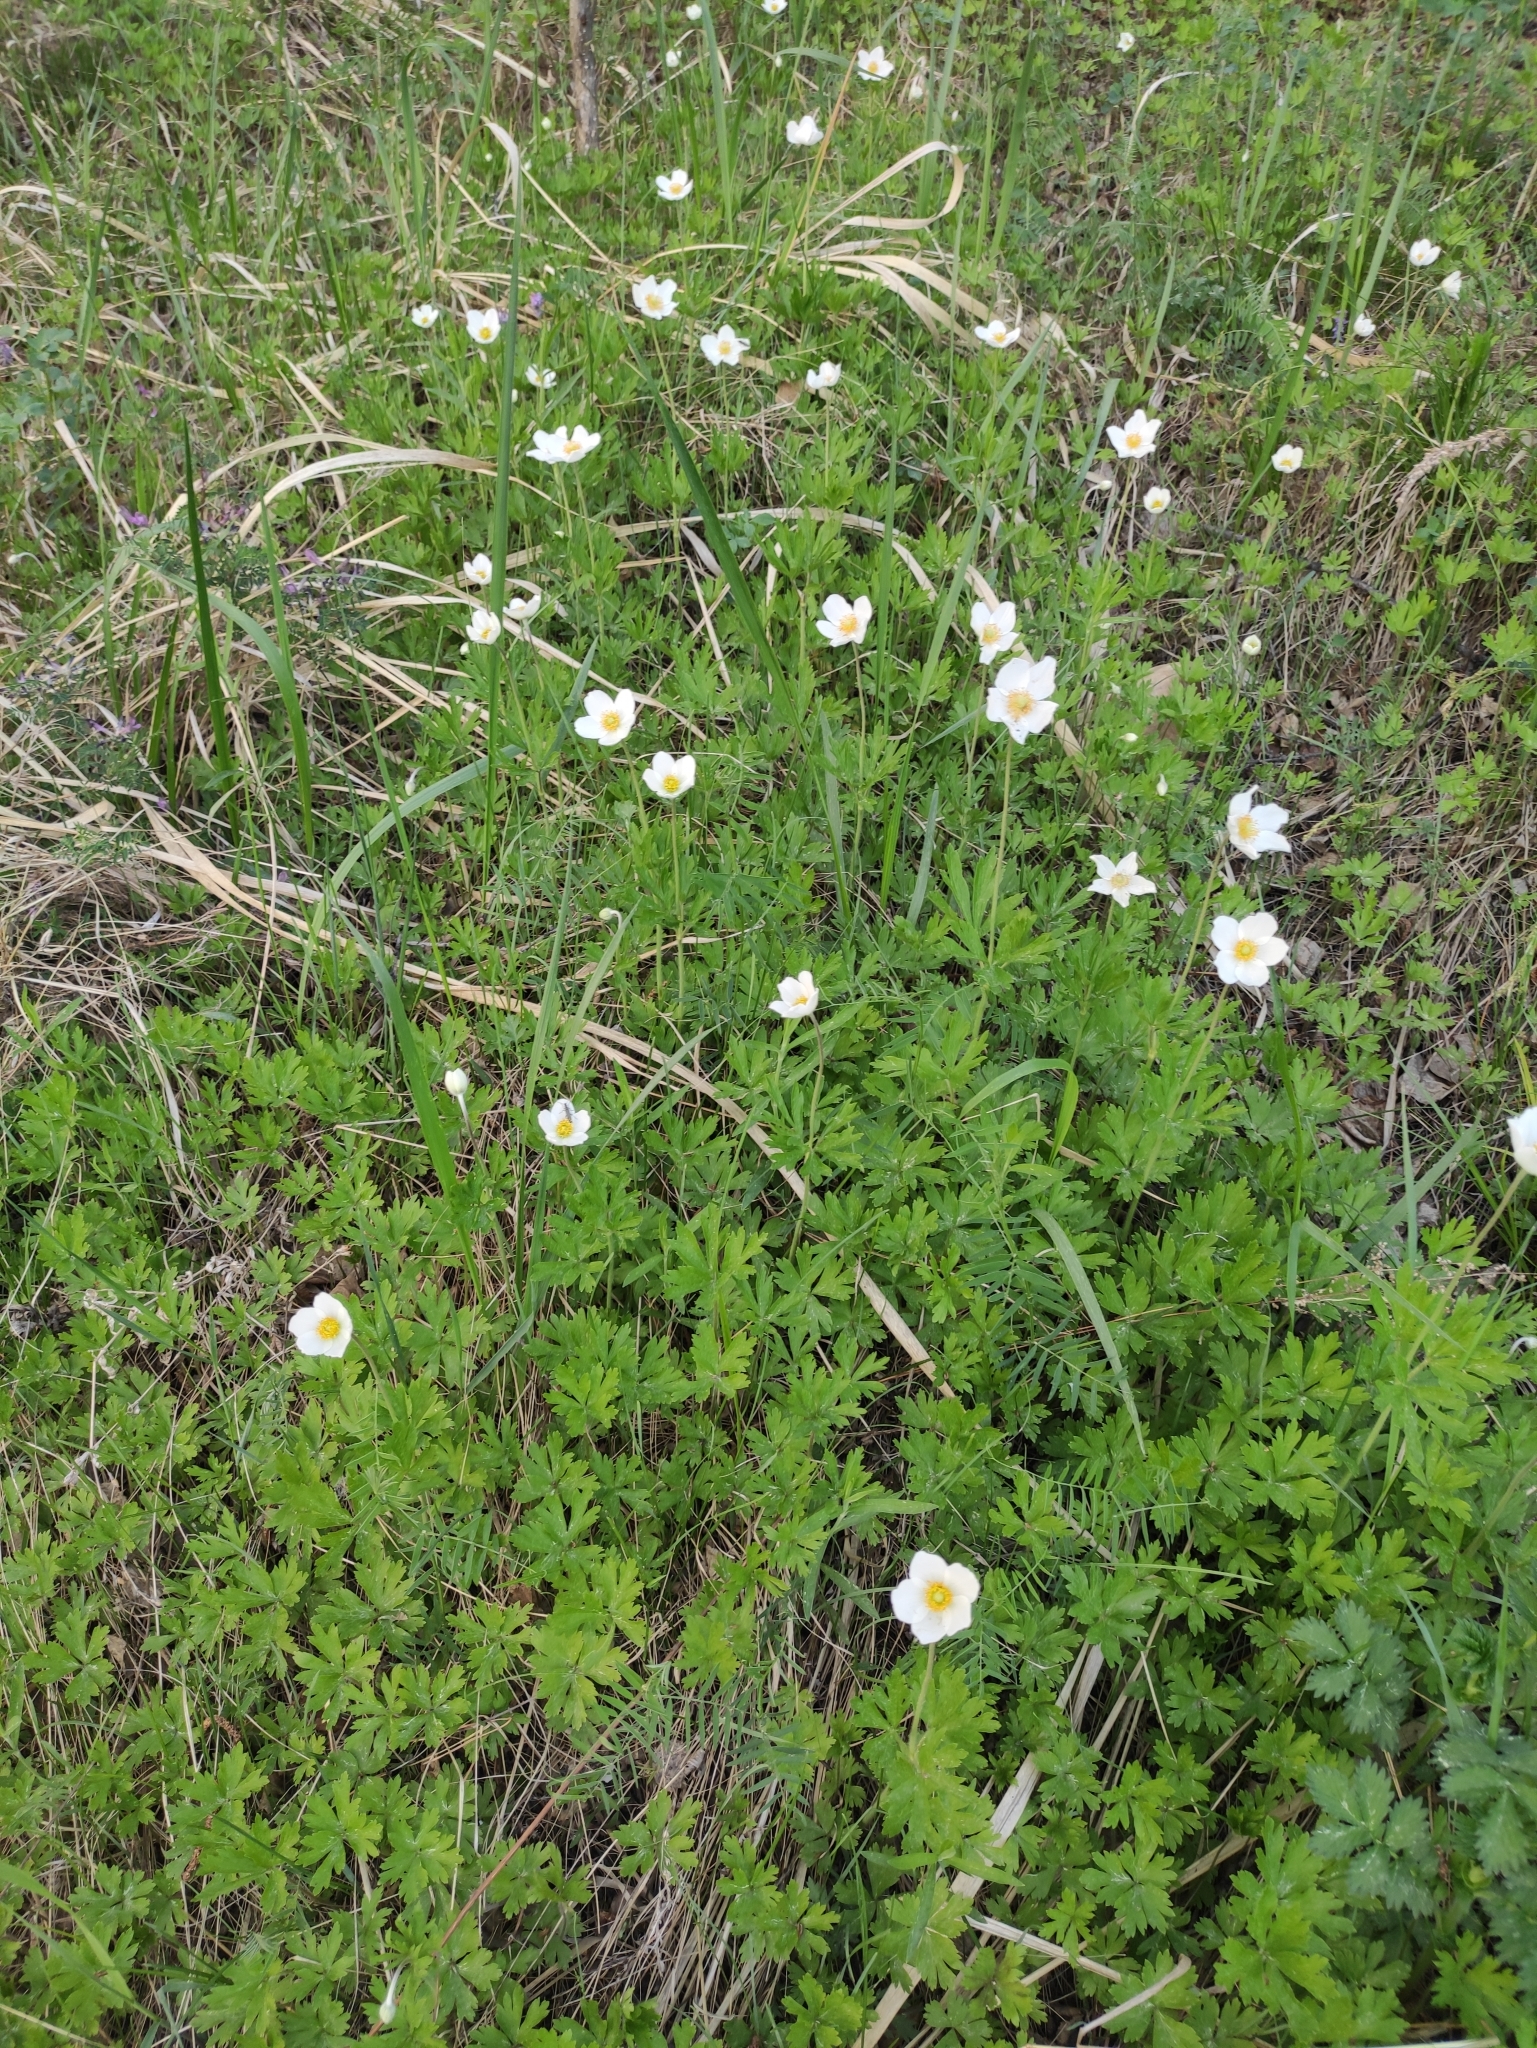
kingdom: Plantae
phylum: Tracheophyta
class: Magnoliopsida
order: Ranunculales
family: Ranunculaceae
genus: Anemone
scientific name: Anemone sylvestris
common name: Snowdrop anemone
